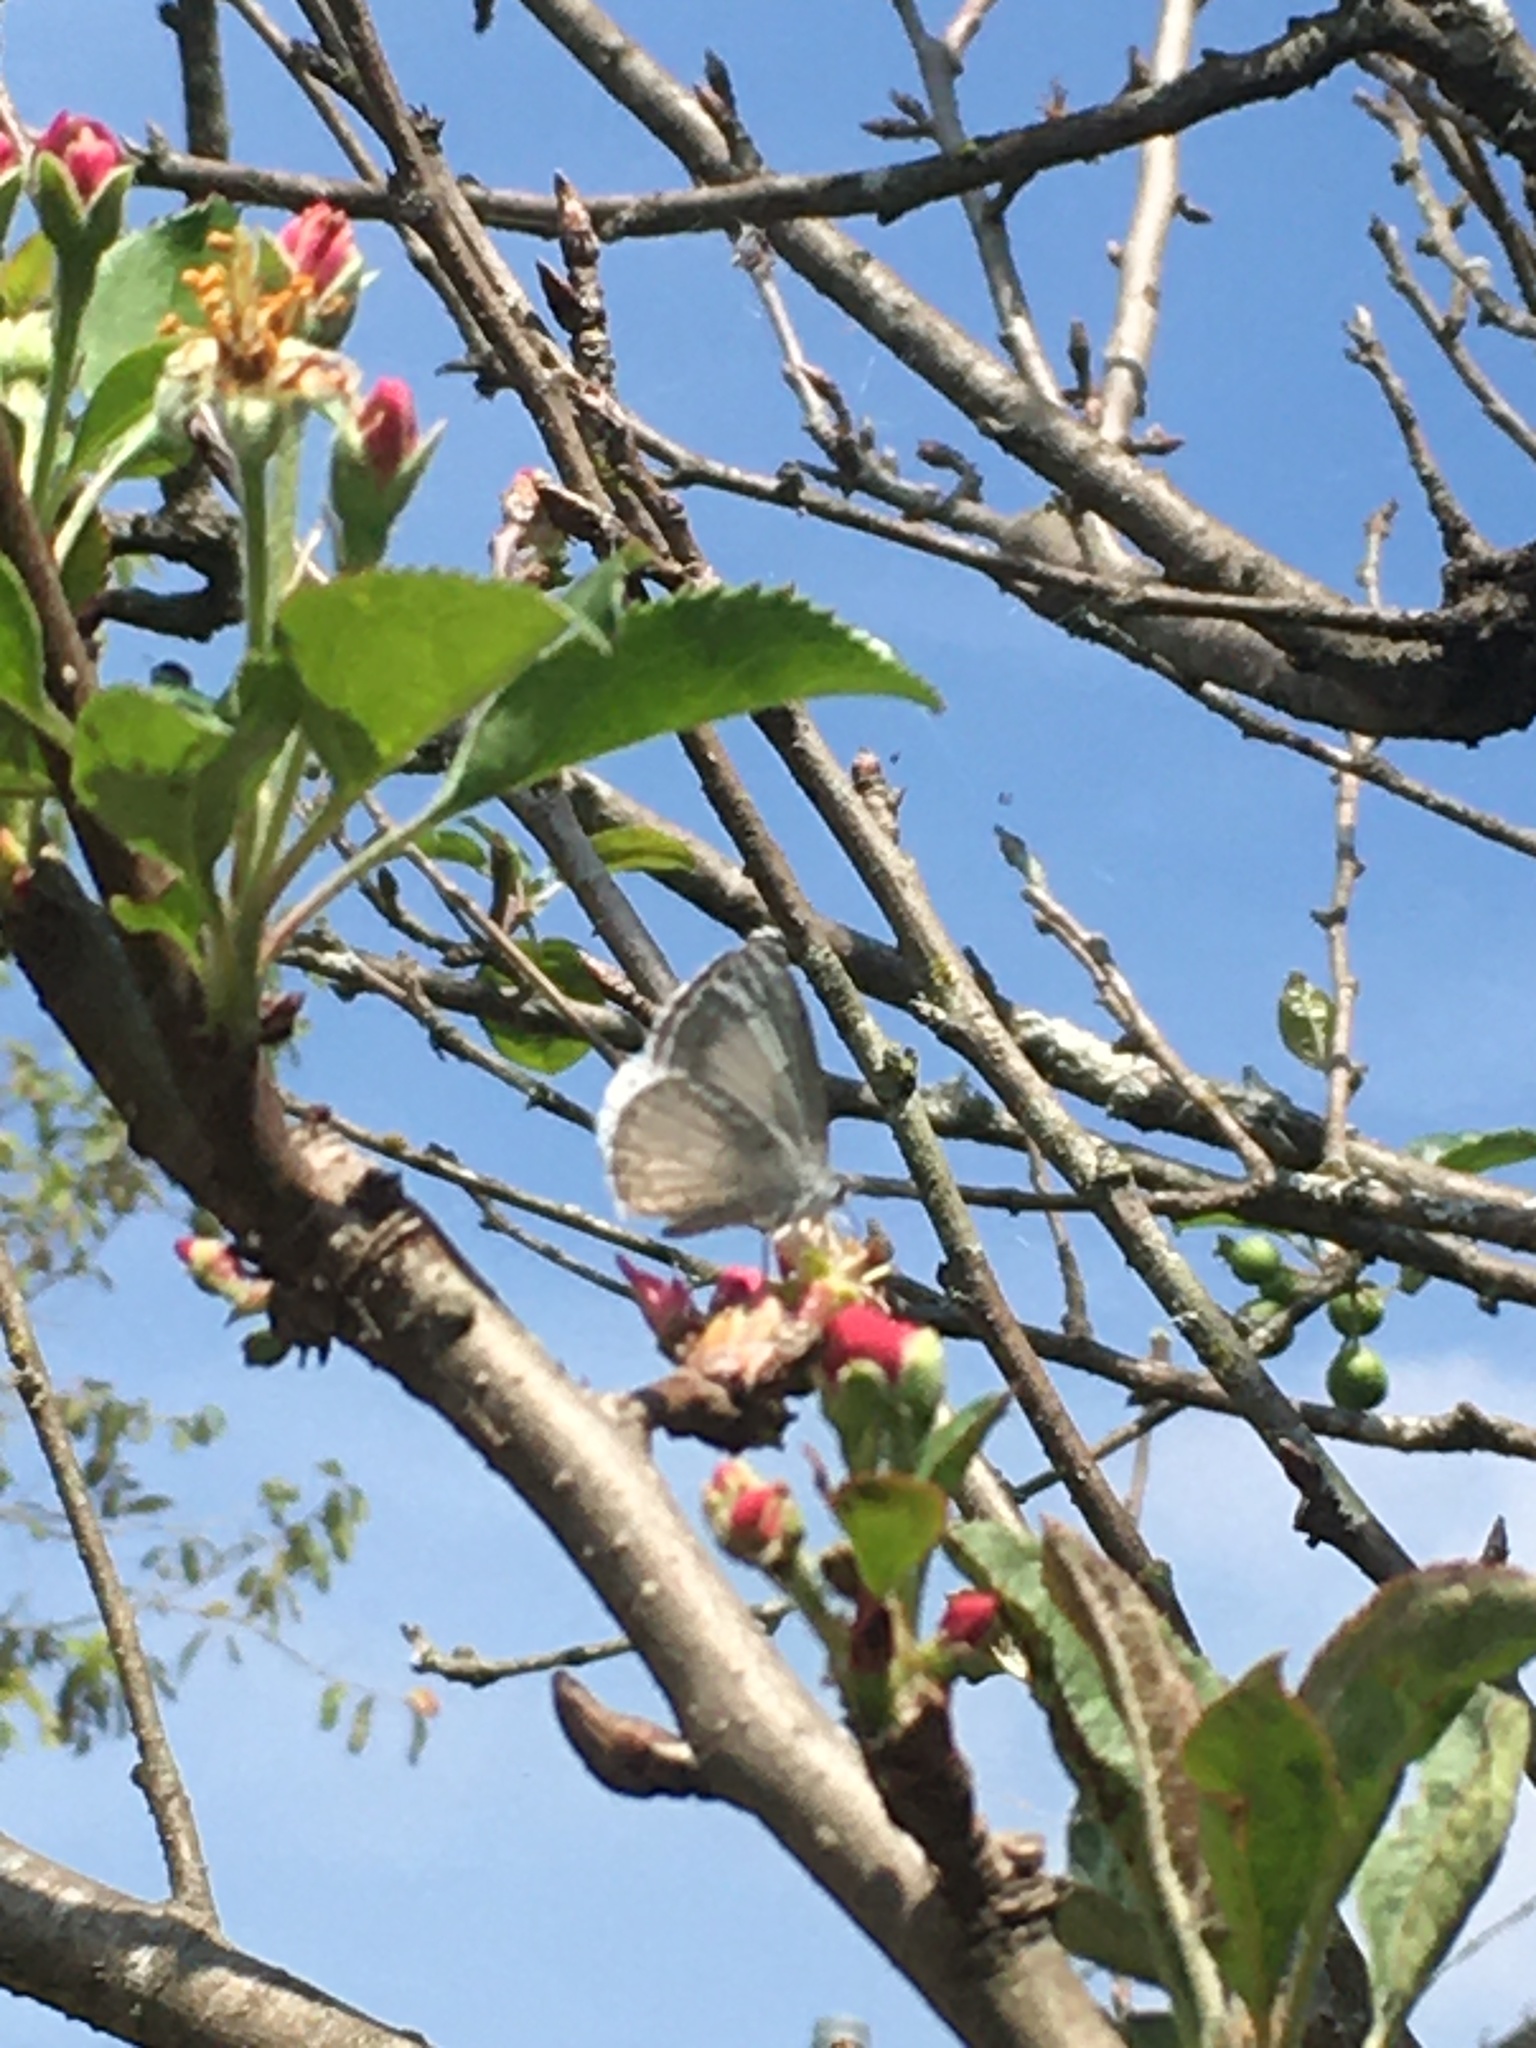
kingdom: Animalia
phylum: Arthropoda
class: Insecta
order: Lepidoptera
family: Lycaenidae
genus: Celastrina
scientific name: Celastrina ladon
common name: Spring azure
